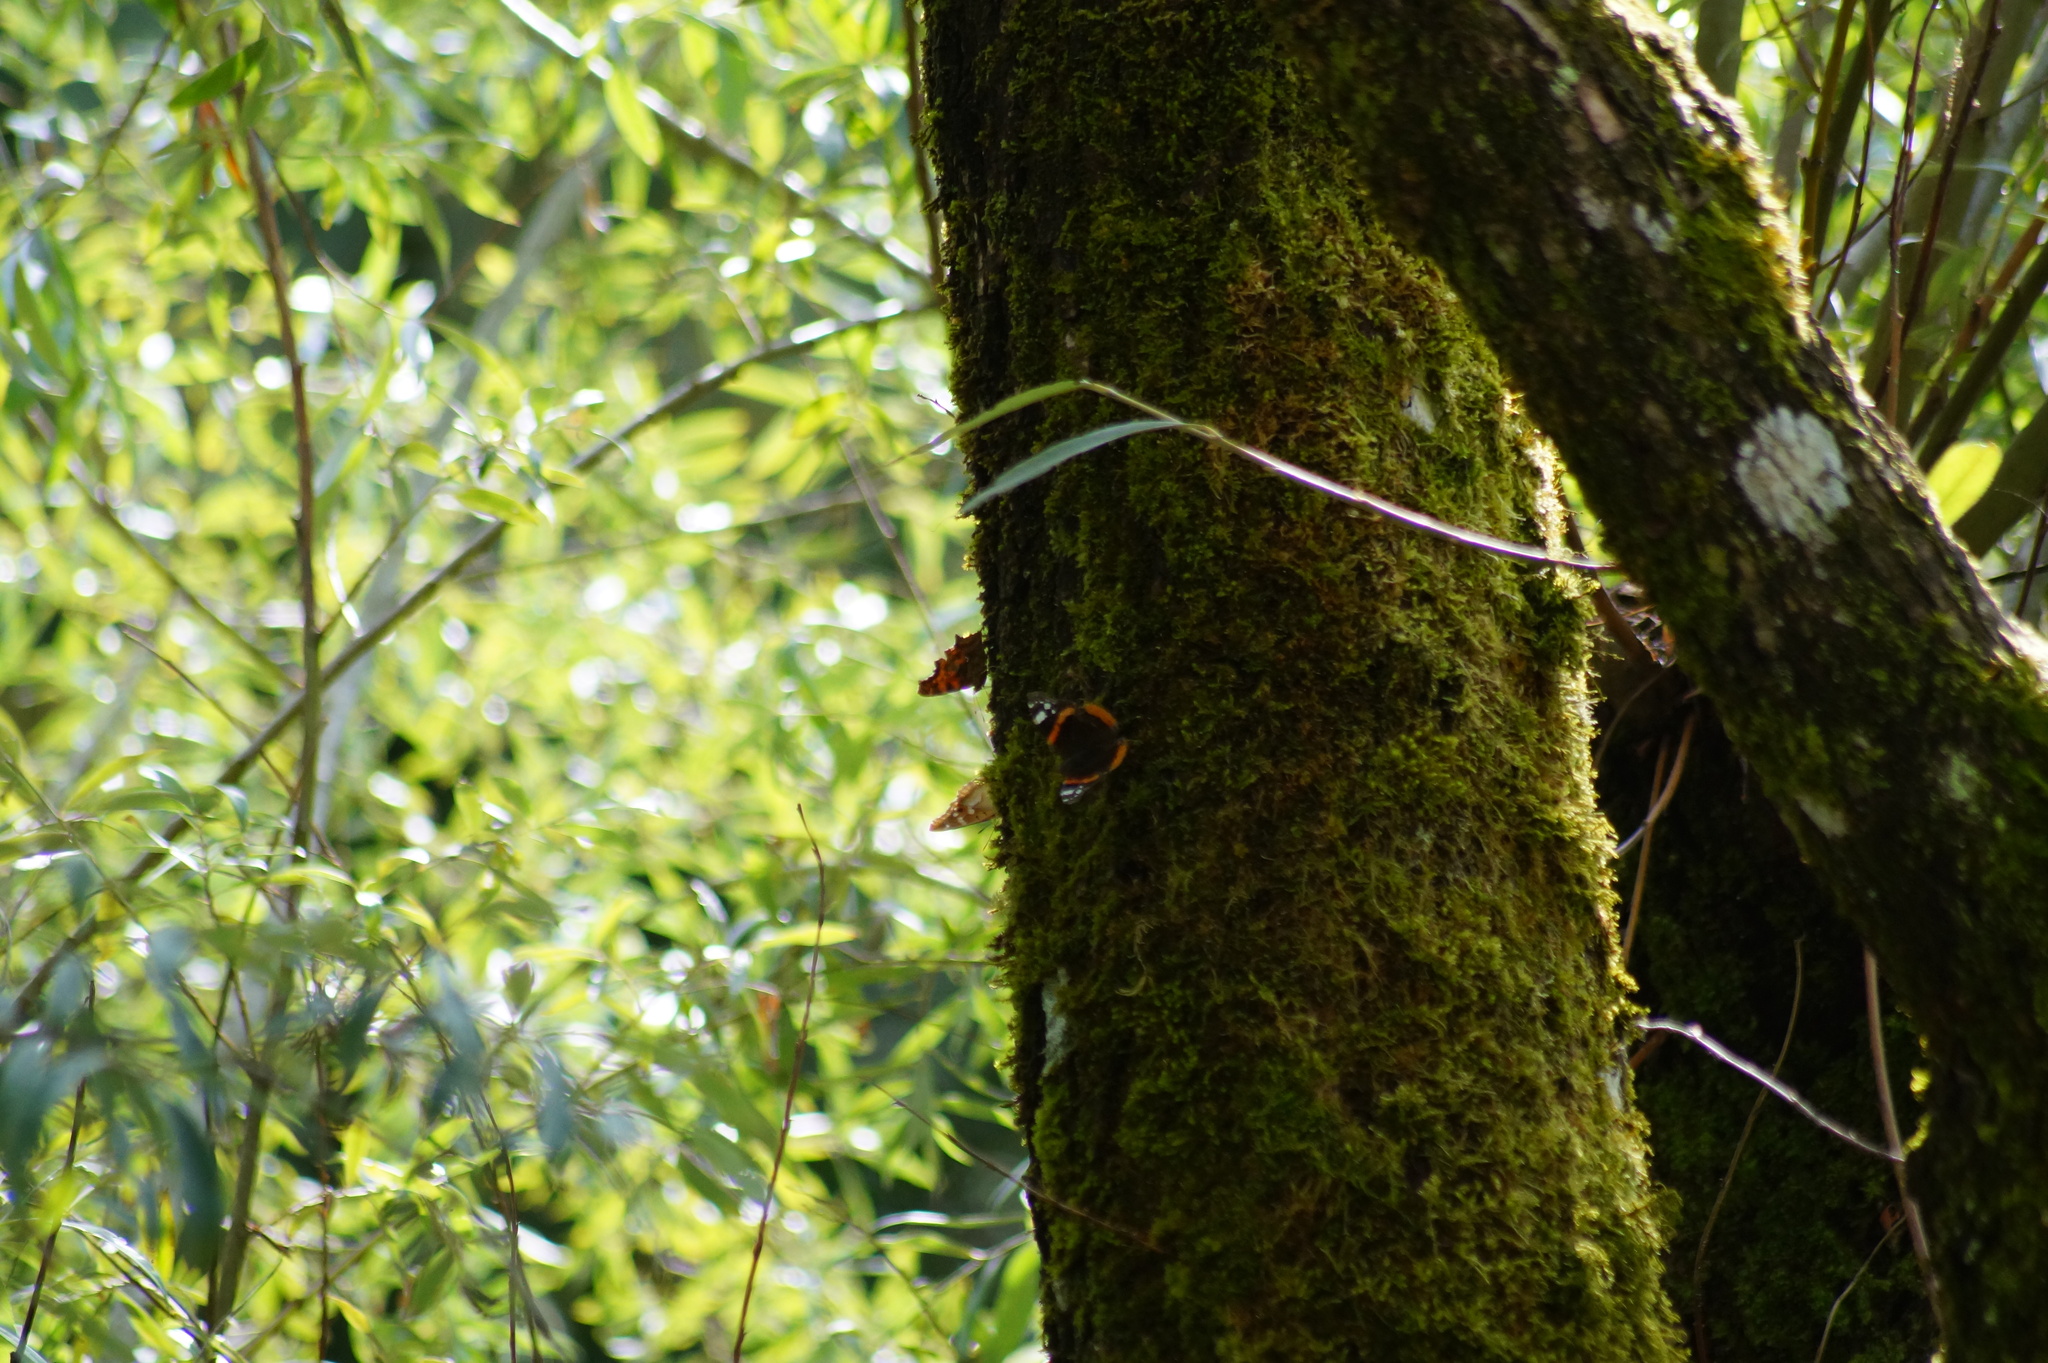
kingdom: Animalia
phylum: Arthropoda
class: Insecta
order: Lepidoptera
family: Nymphalidae
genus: Vanessa
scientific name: Vanessa atalanta
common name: Red admiral
